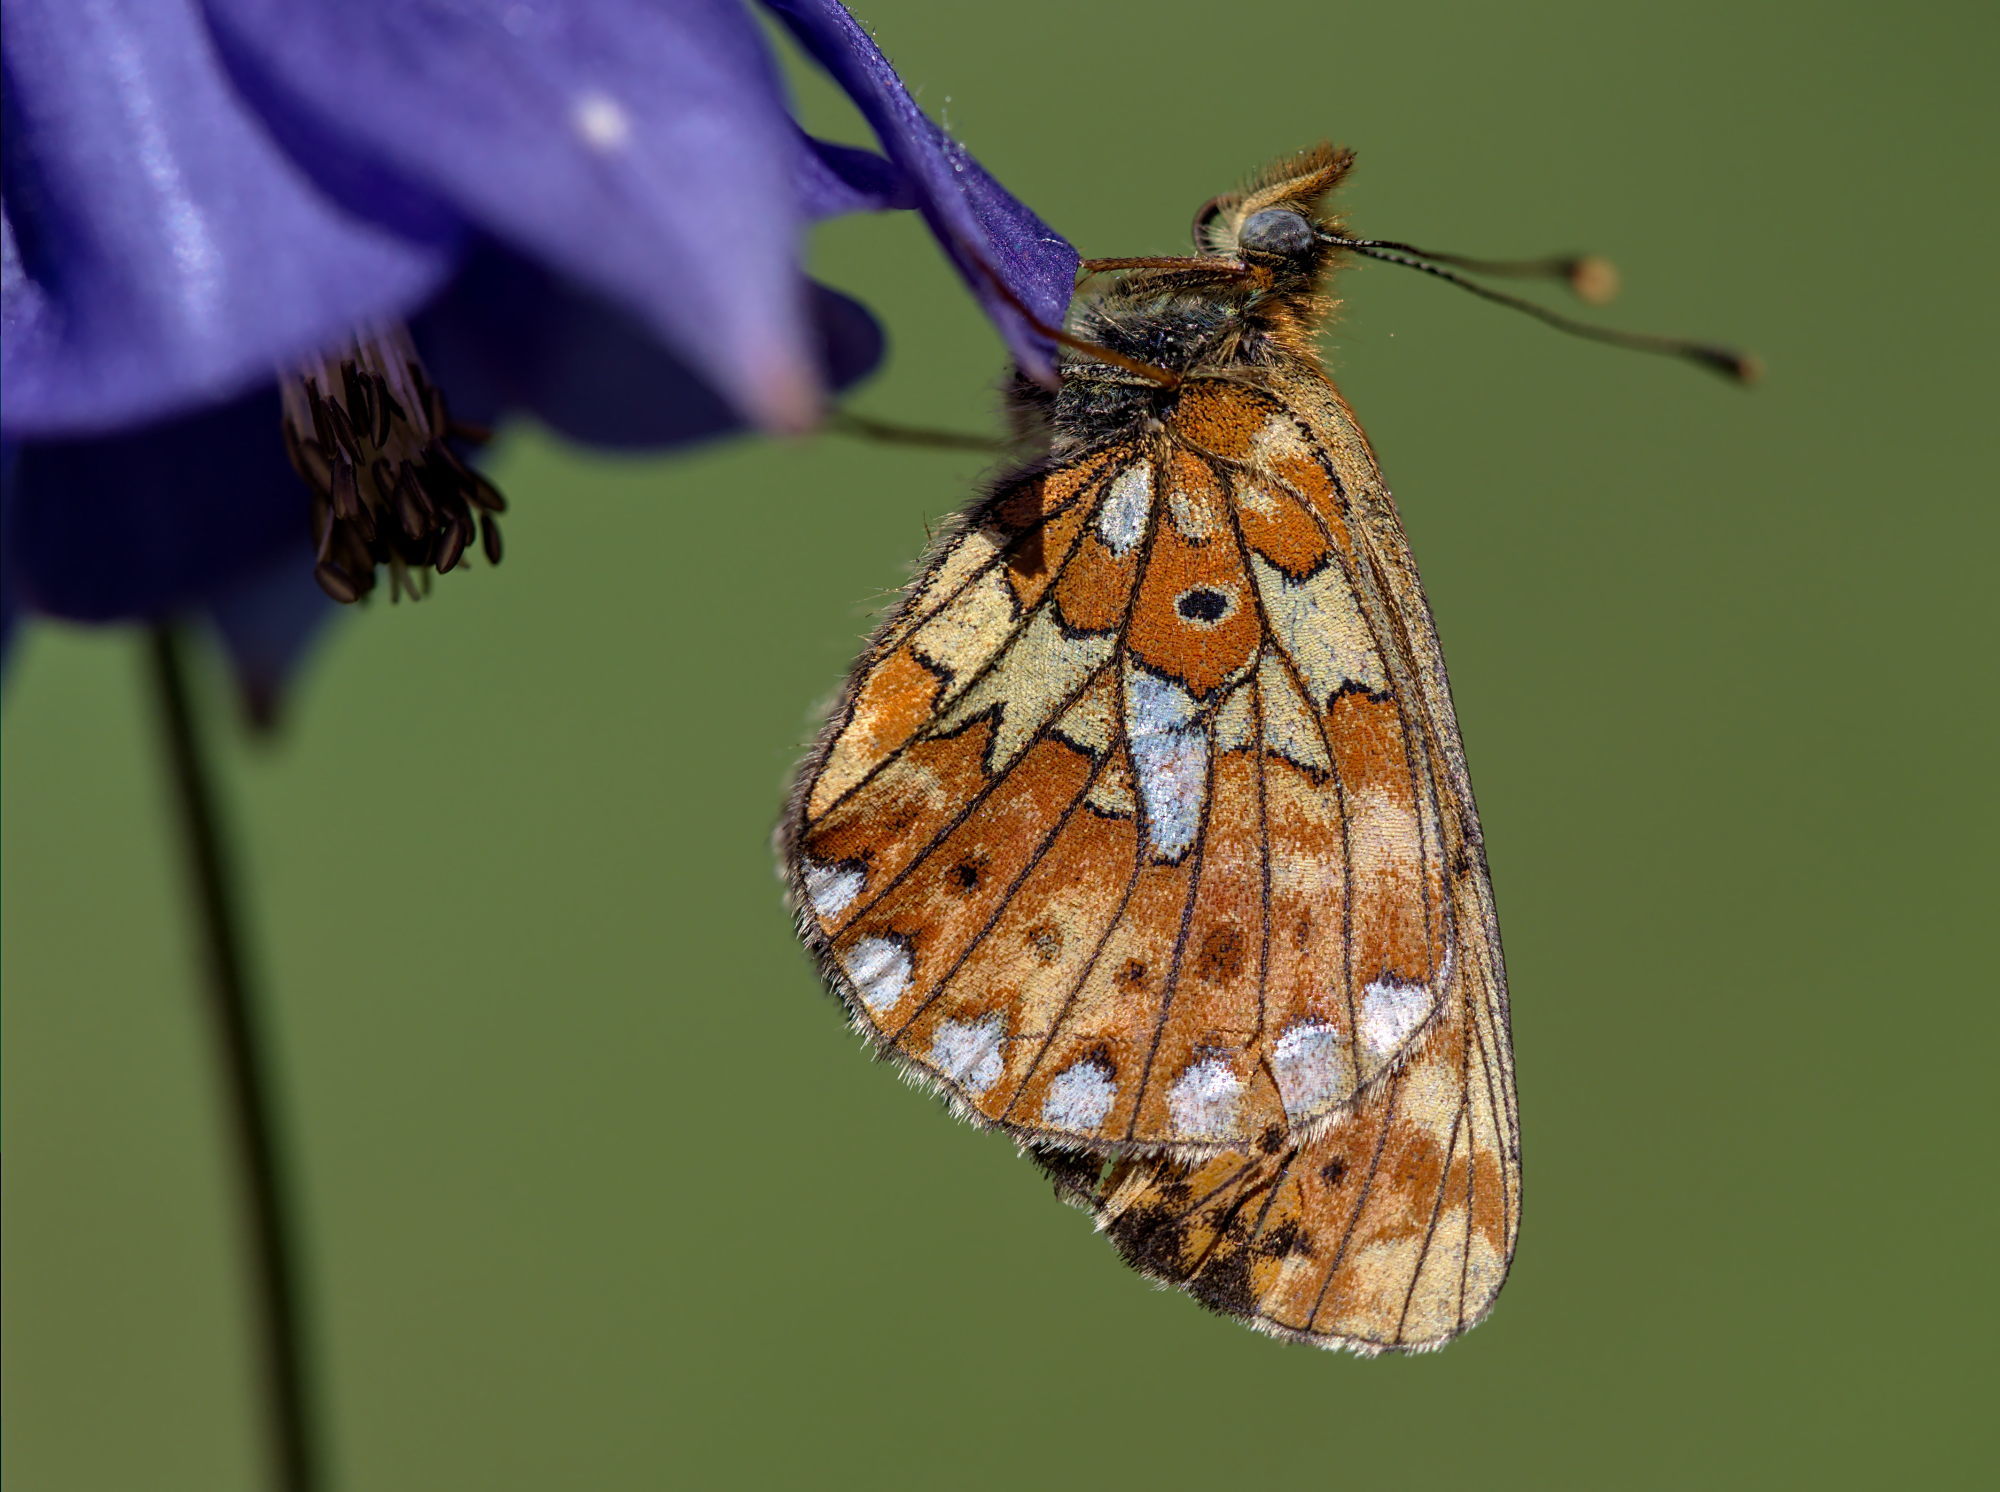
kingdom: Animalia
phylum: Arthropoda
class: Insecta
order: Lepidoptera
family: Nymphalidae
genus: Clossiana
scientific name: Clossiana euphrosyne
